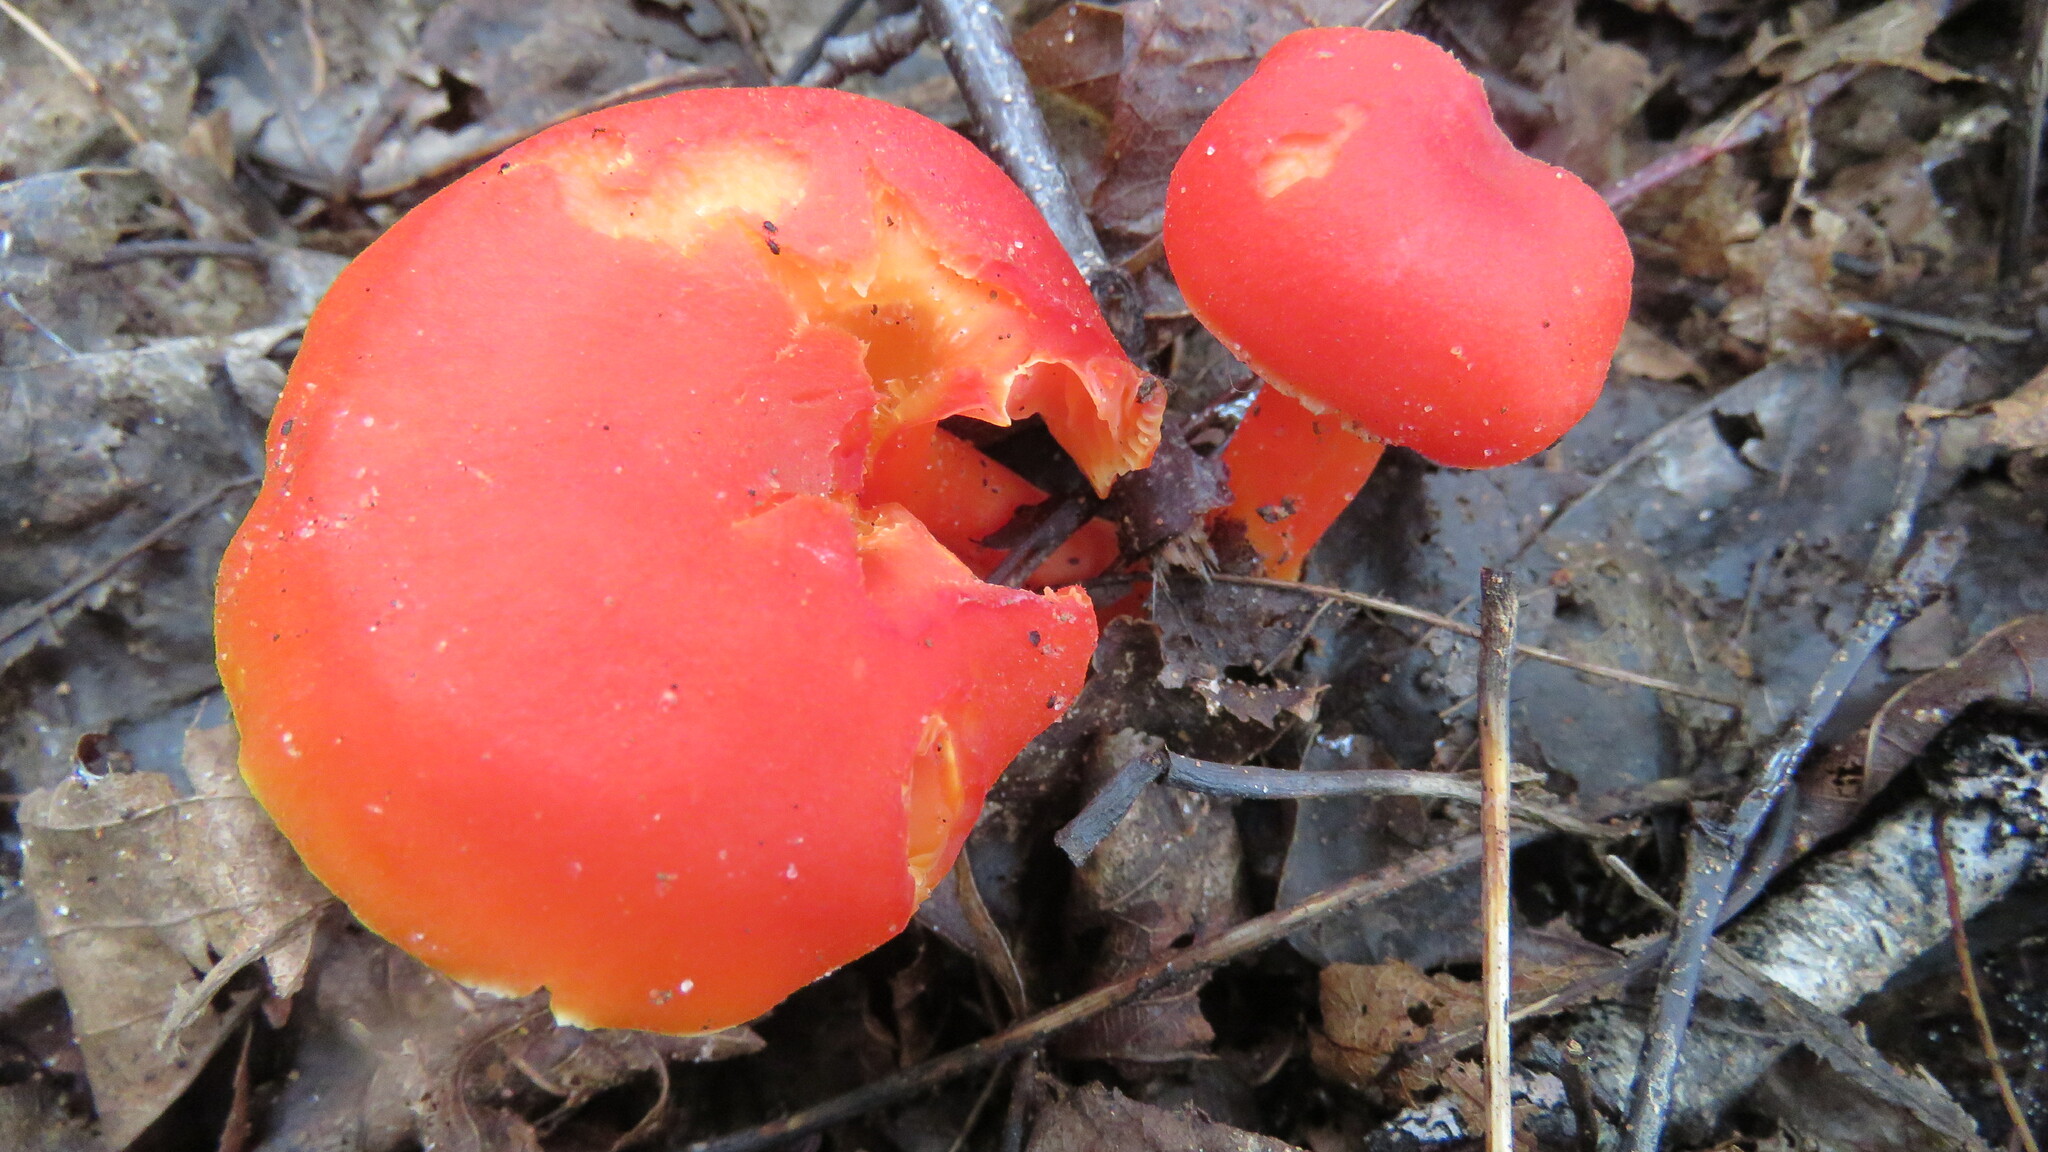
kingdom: Fungi
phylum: Basidiomycota
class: Agaricomycetes
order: Agaricales
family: Hygrophoraceae
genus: Hygrocybe
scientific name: Hygrocybe coccinea
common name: Scarlet hood
